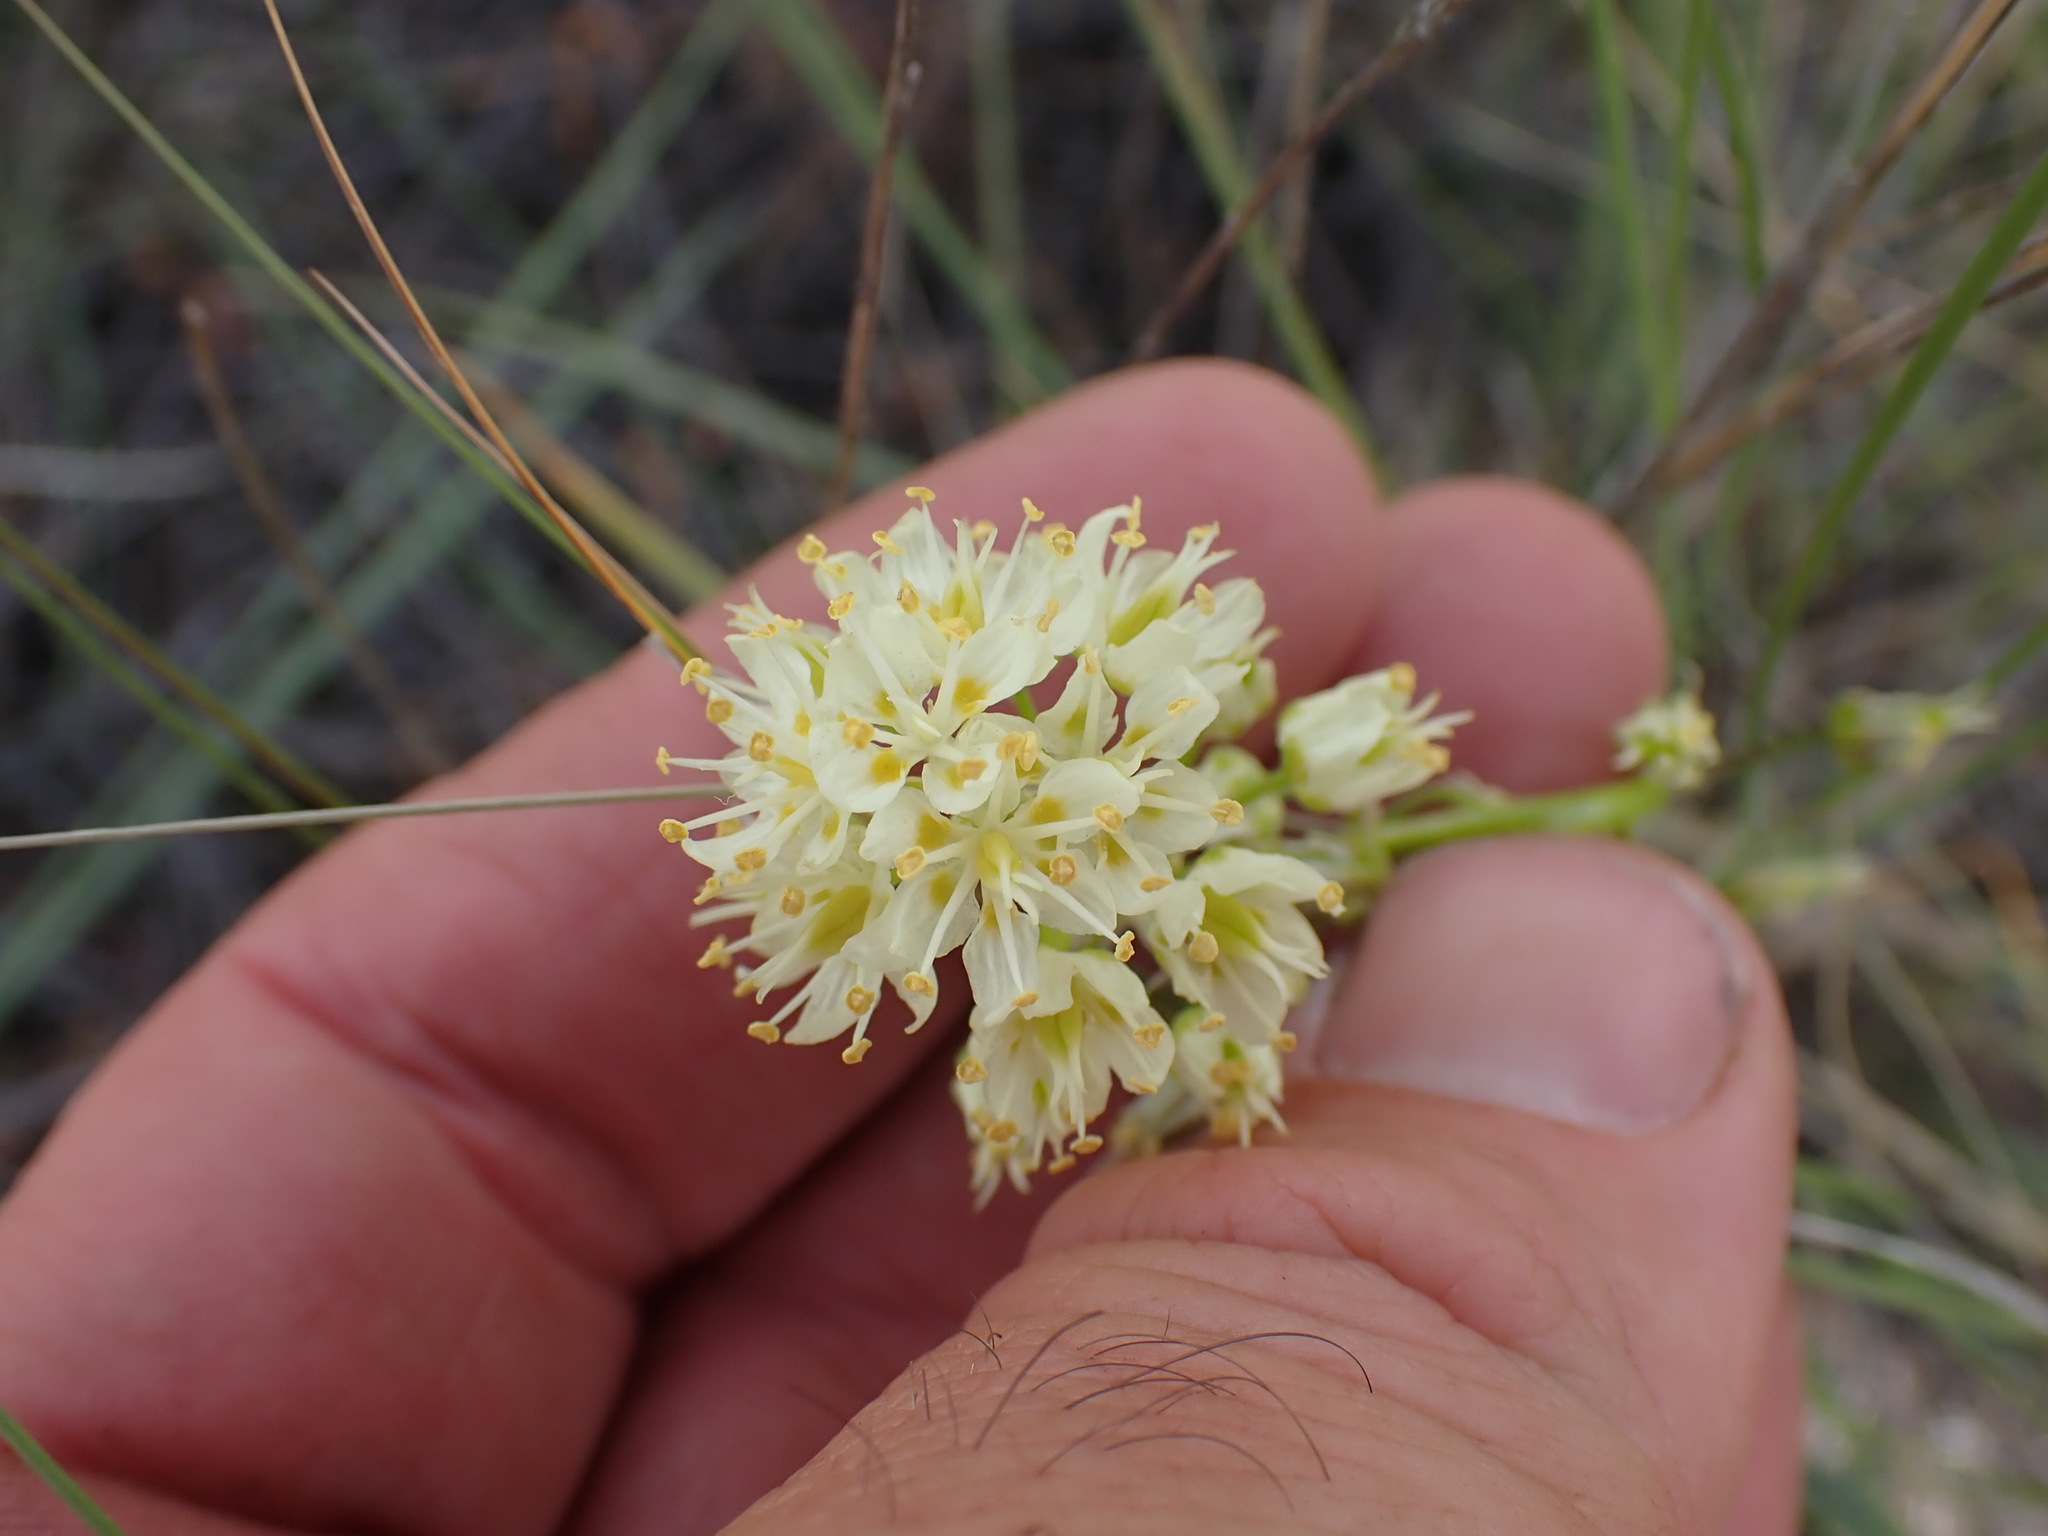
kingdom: Plantae
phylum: Tracheophyta
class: Liliopsida
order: Liliales
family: Melanthiaceae
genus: Toxicoscordion
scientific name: Toxicoscordion venenosum
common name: Meadow death camas
